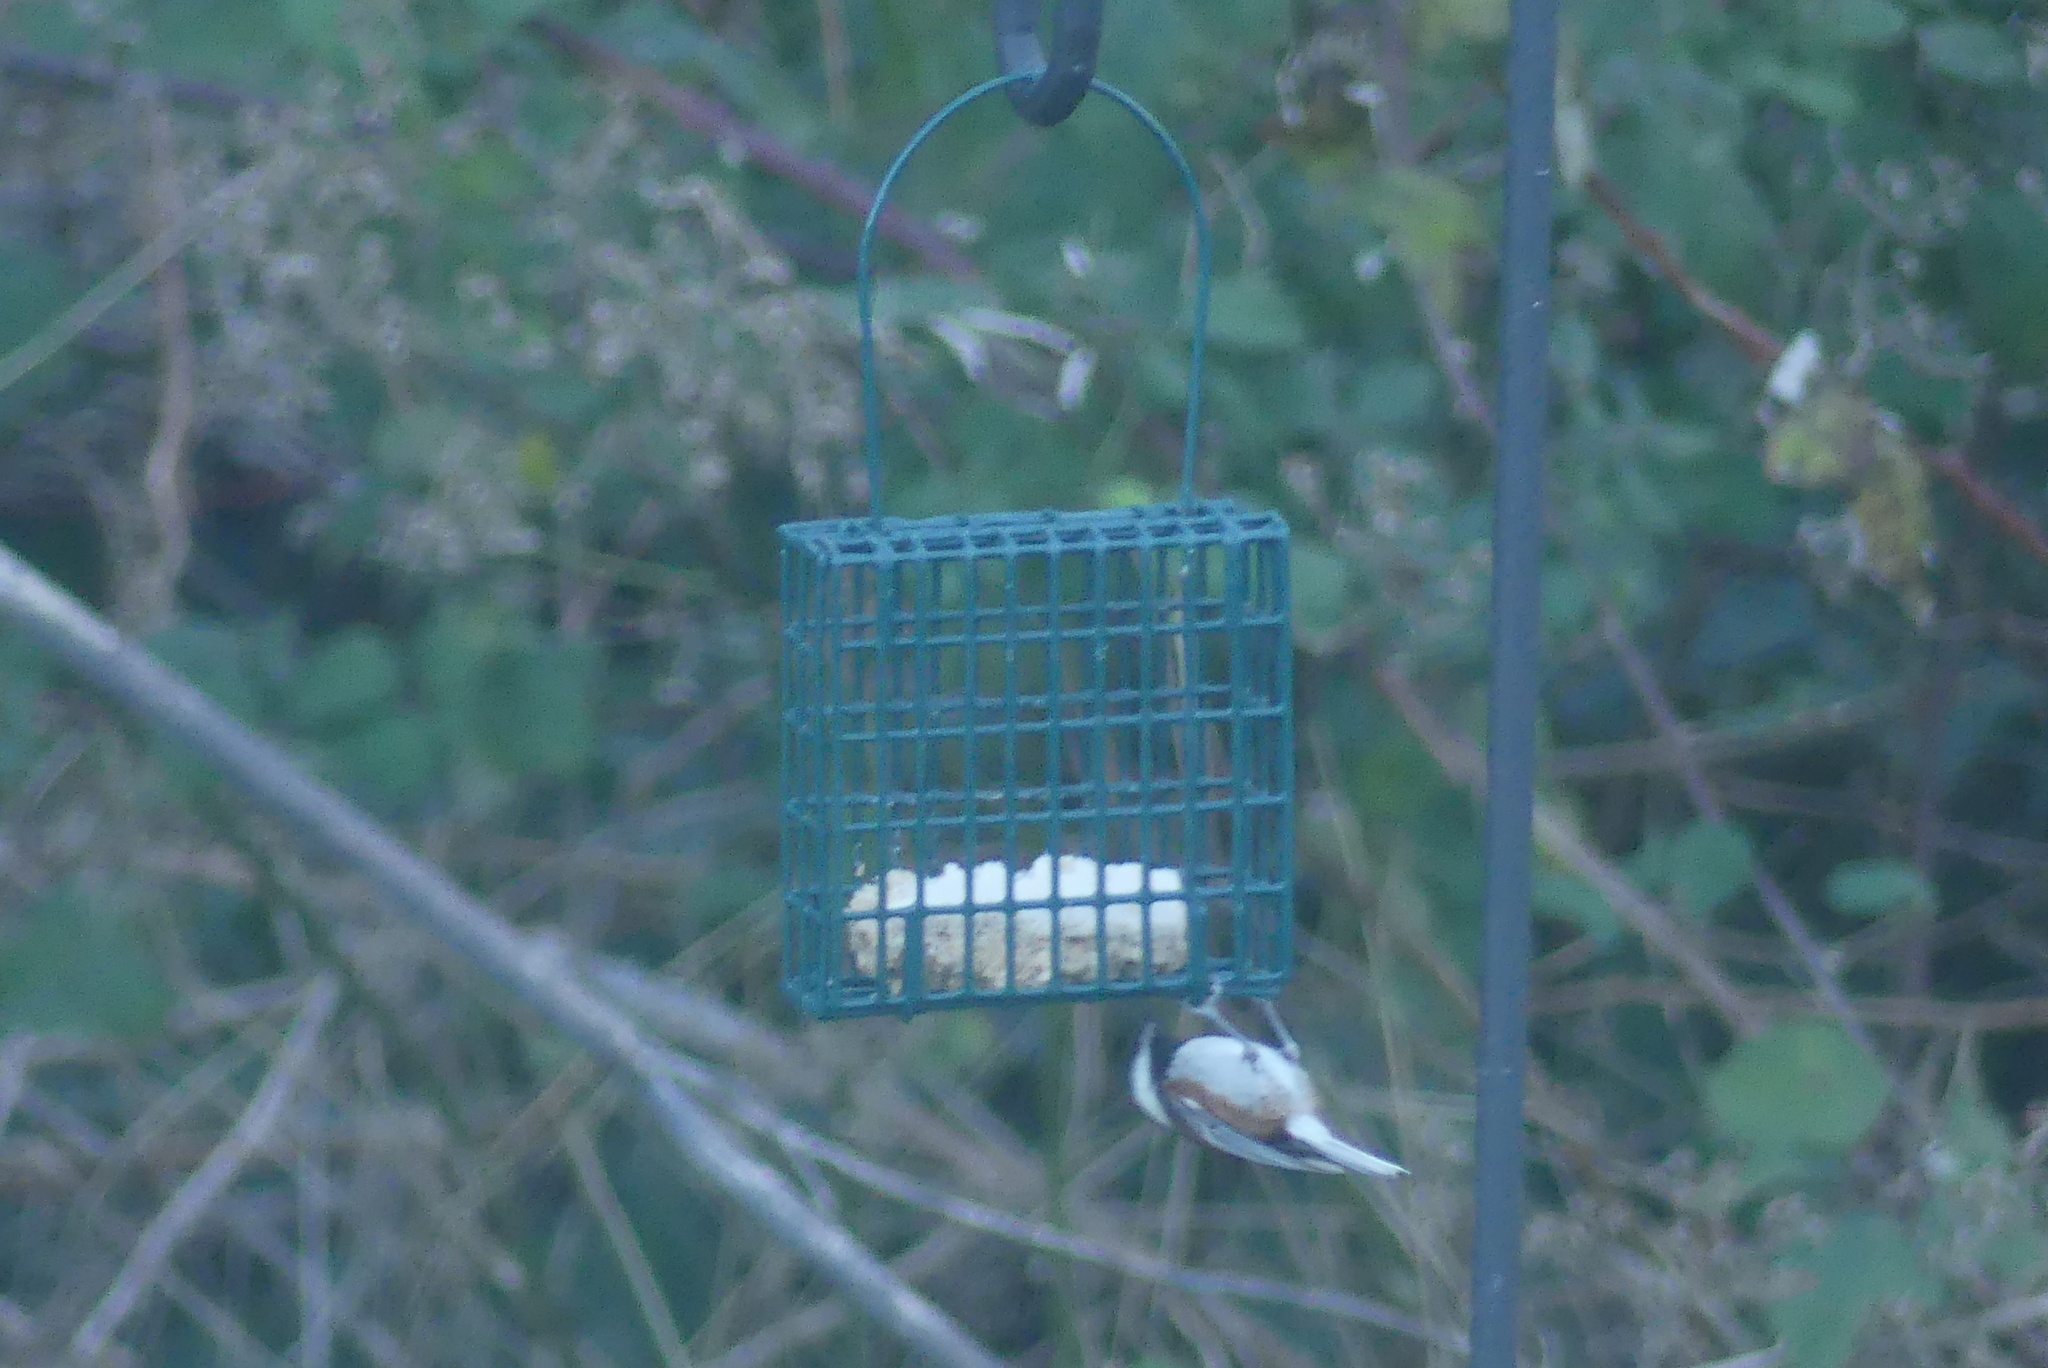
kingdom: Animalia
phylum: Chordata
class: Aves
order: Passeriformes
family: Paridae
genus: Poecile
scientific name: Poecile rufescens
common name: Chestnut-backed chickadee
